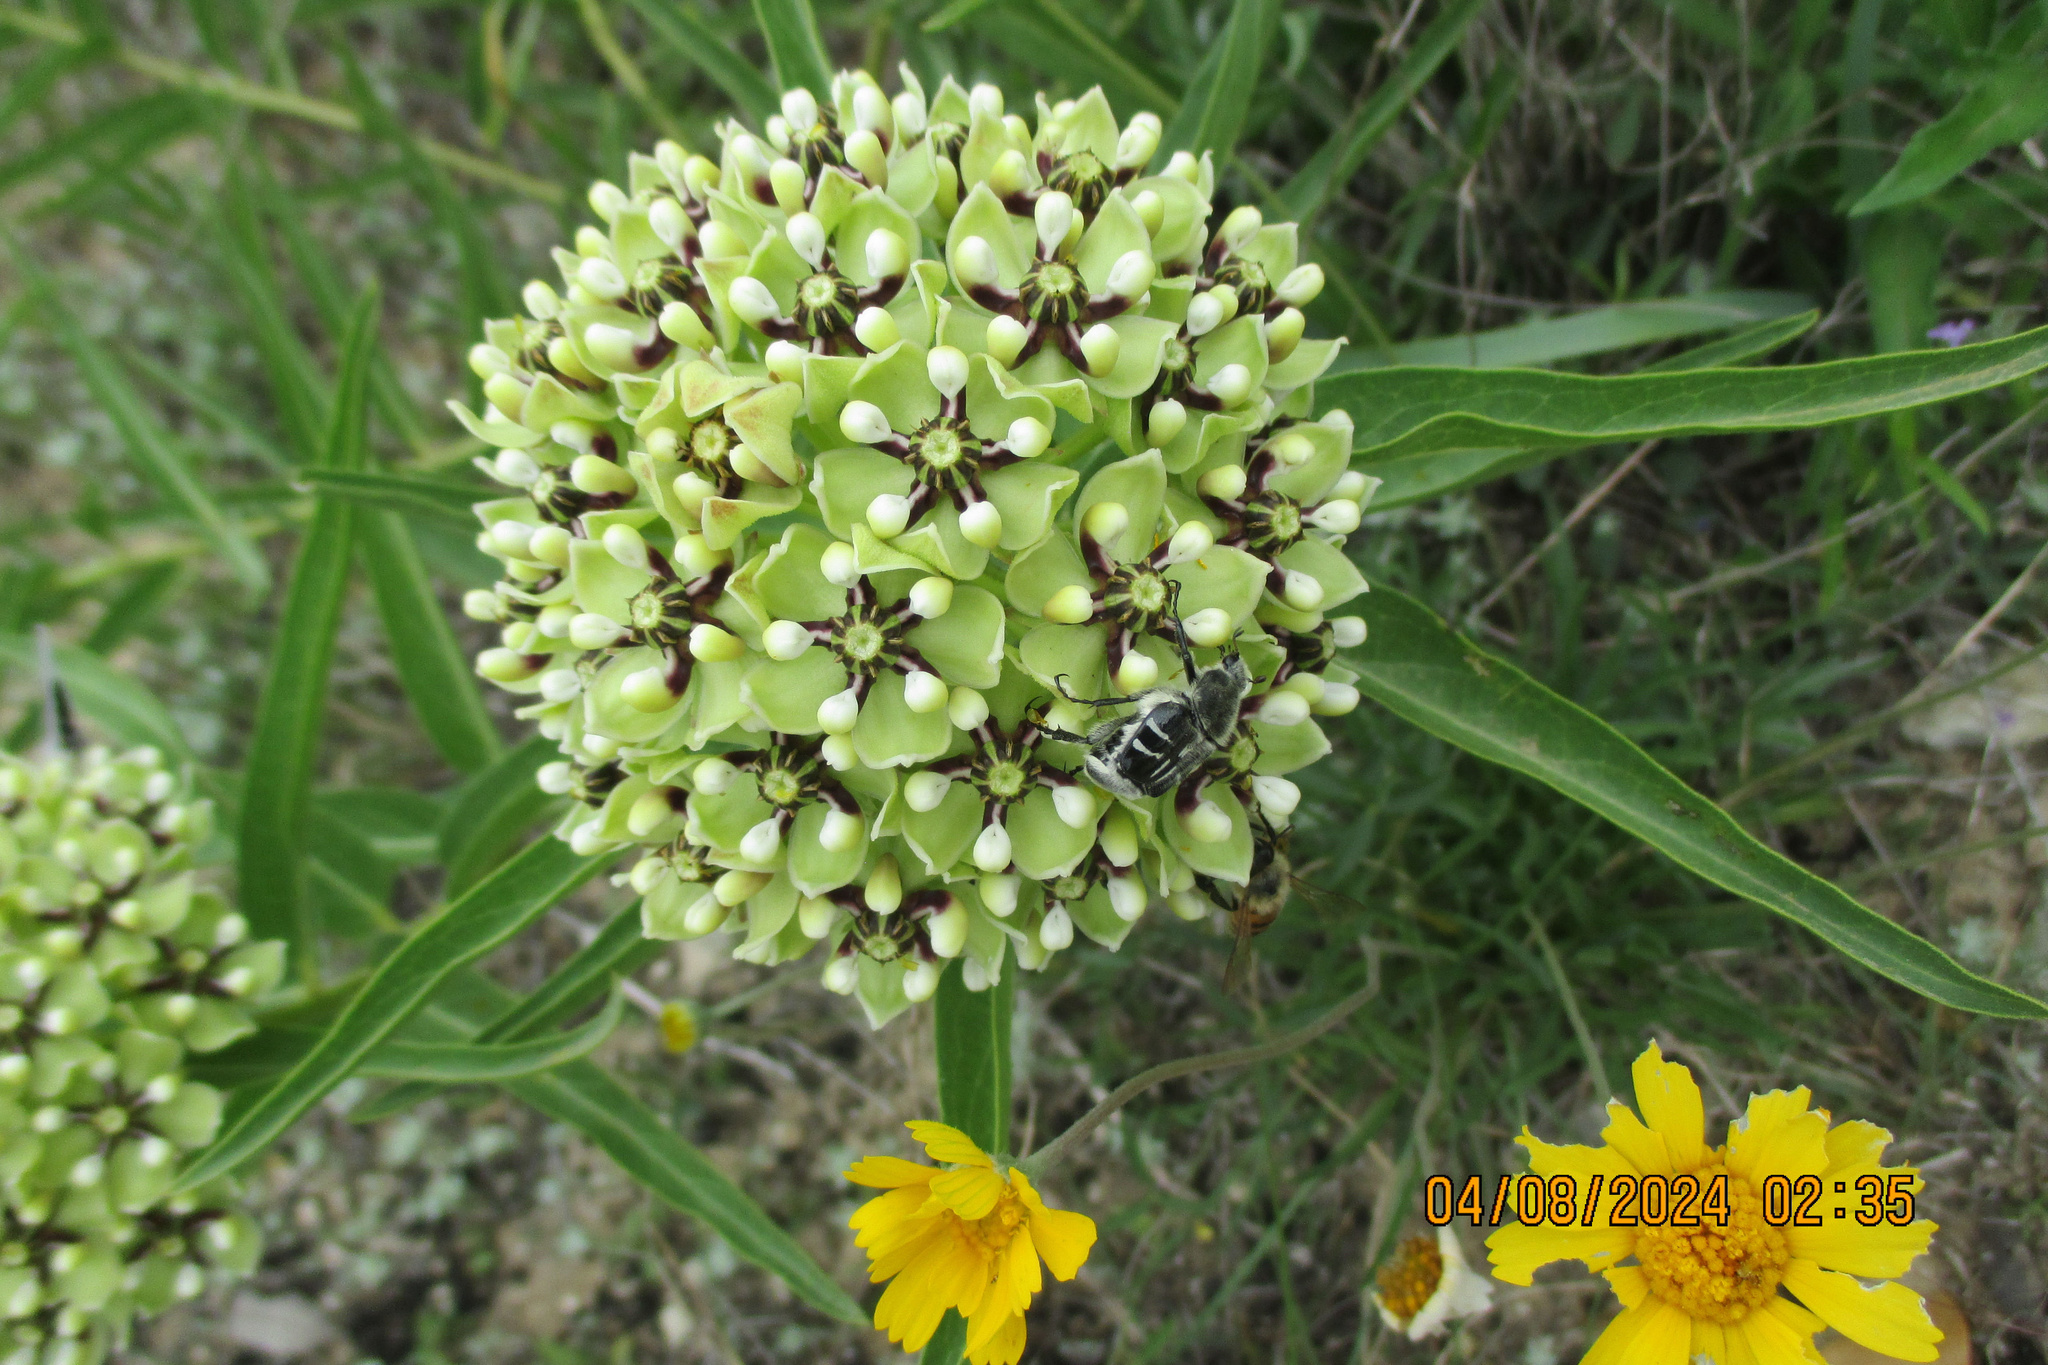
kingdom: Plantae
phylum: Tracheophyta
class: Magnoliopsida
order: Gentianales
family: Apocynaceae
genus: Asclepias
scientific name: Asclepias asperula
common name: Antelope horns
